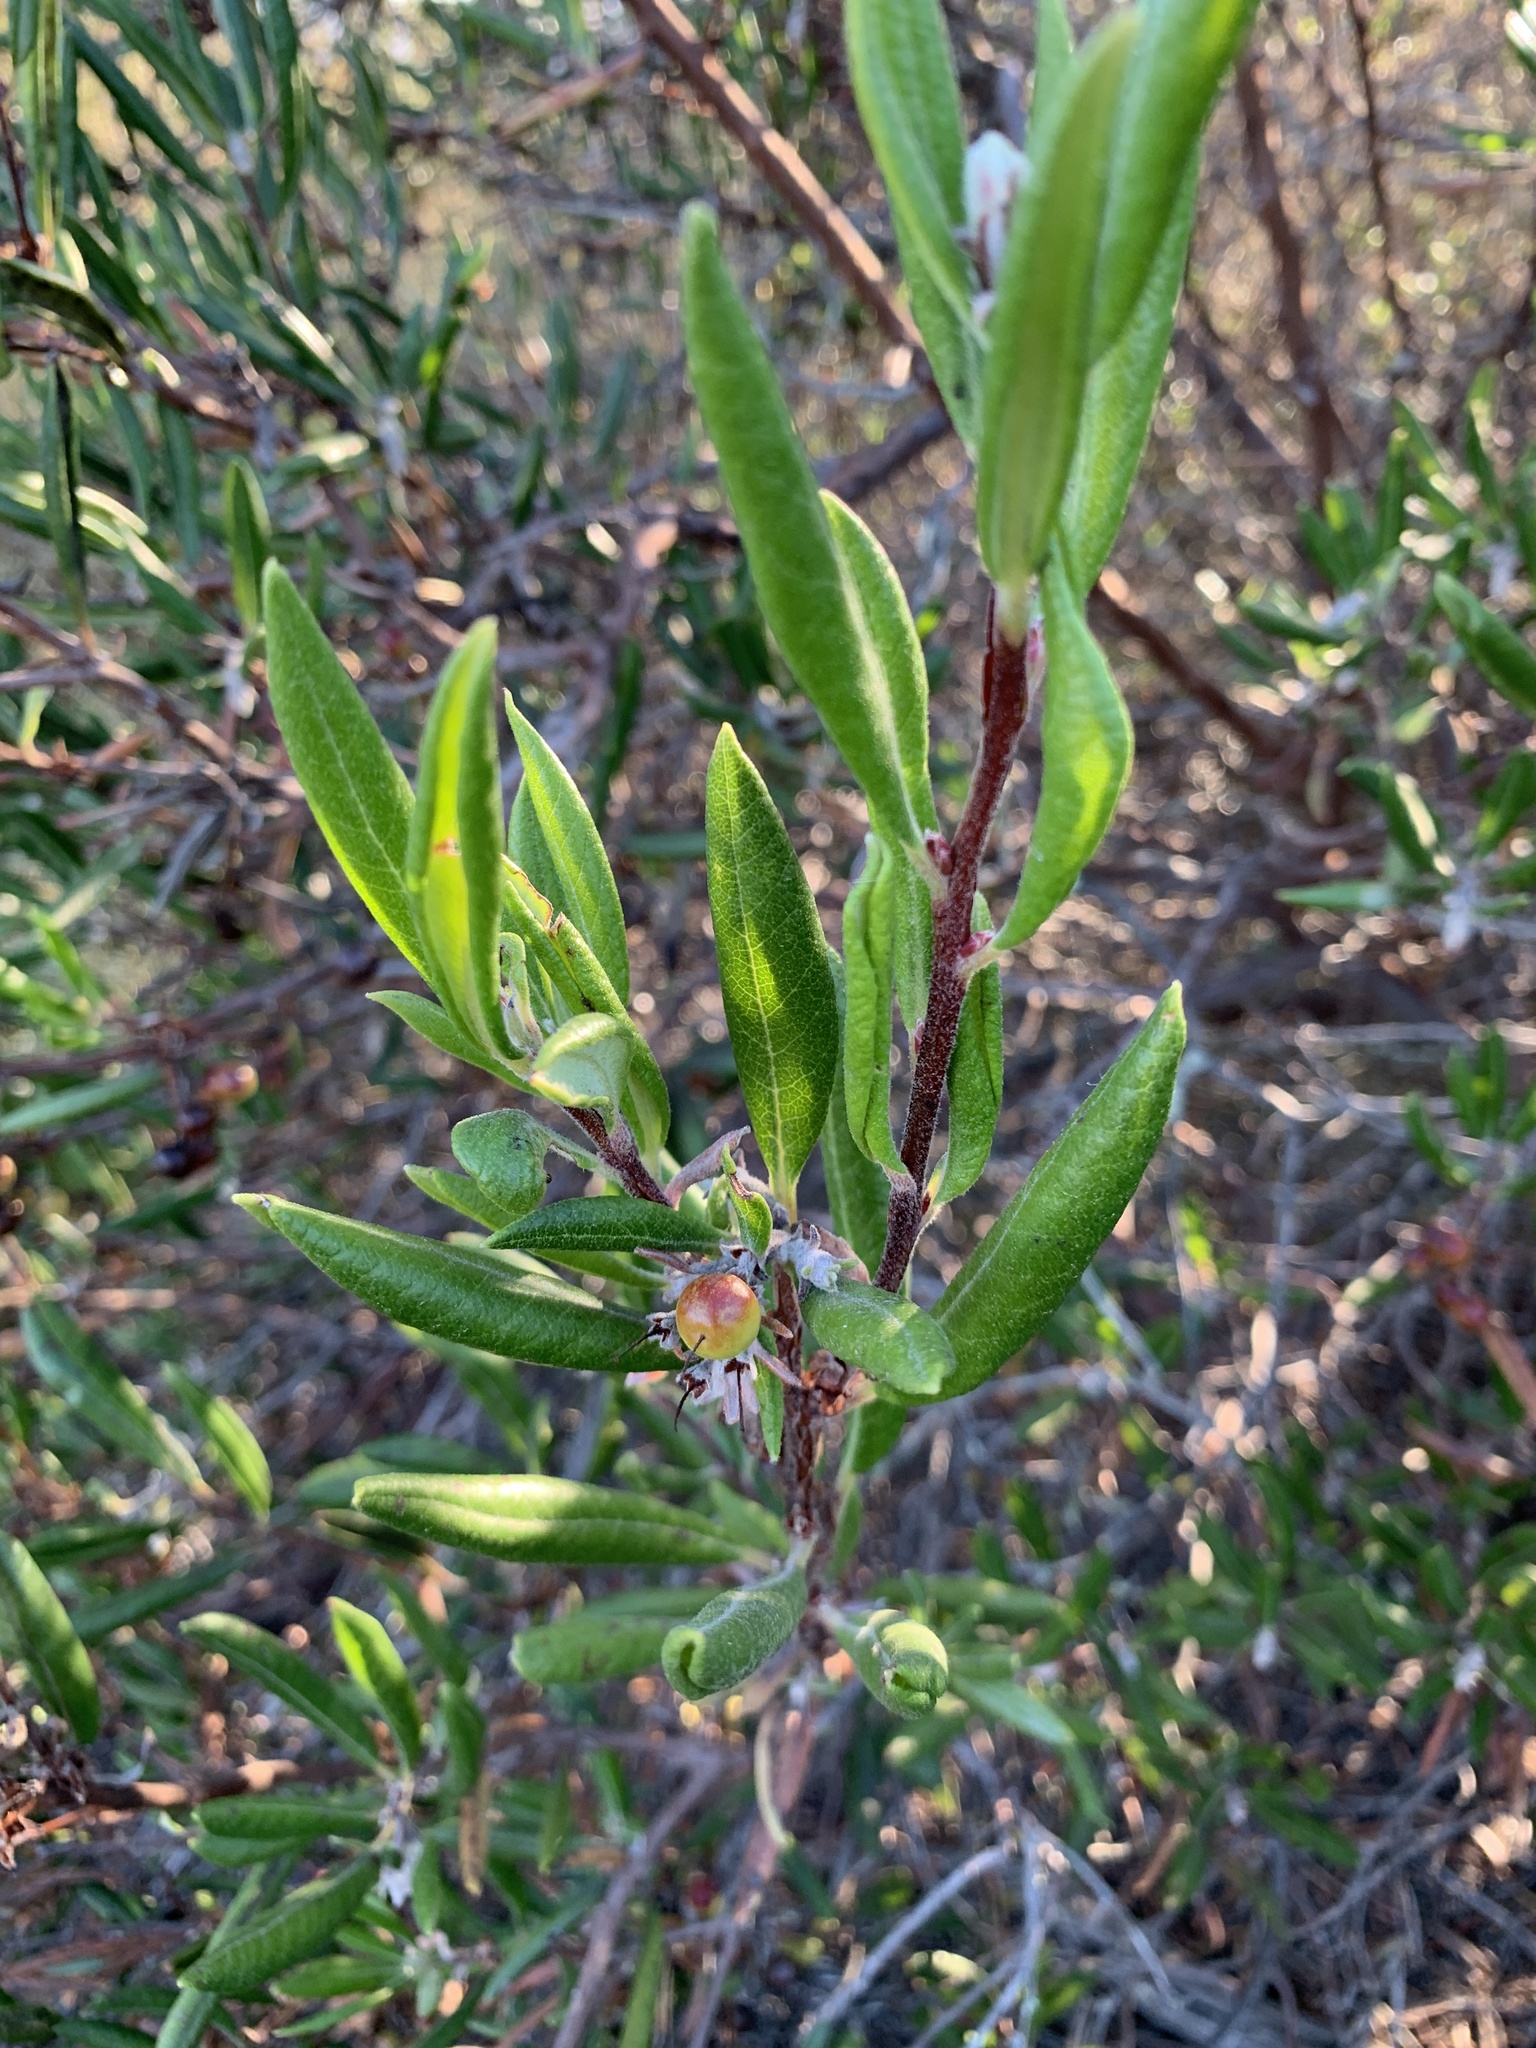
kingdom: Plantae
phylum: Tracheophyta
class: Magnoliopsida
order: Ericales
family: Ericaceae
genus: Arctostaphylos
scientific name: Arctostaphylos bicolor
